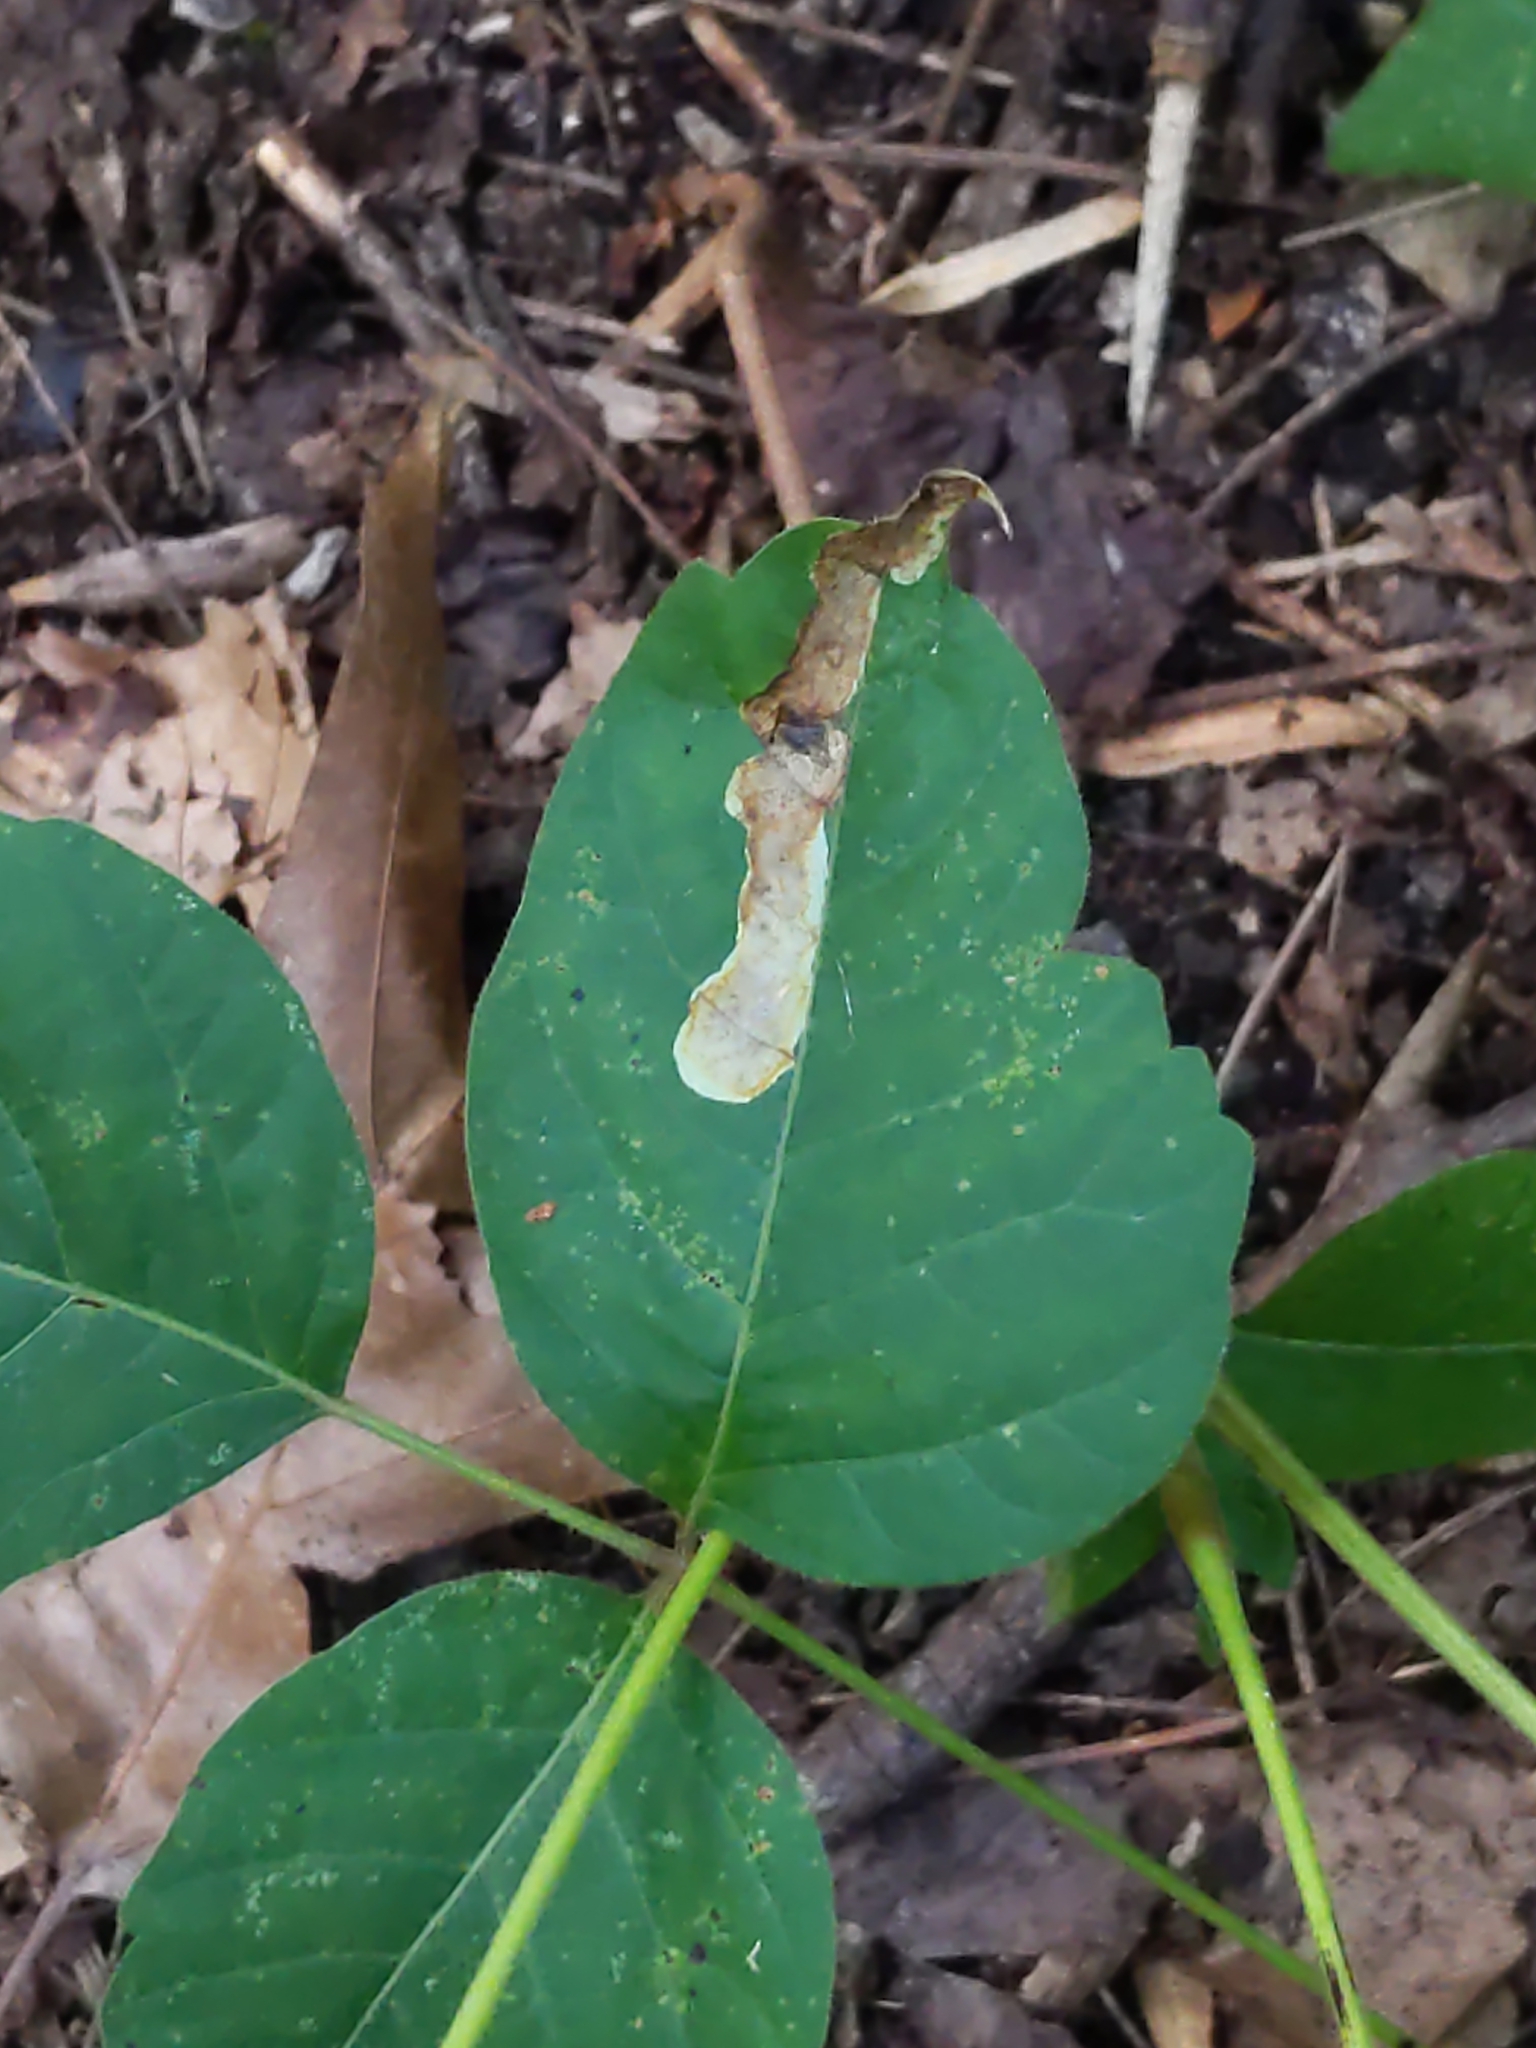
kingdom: Animalia
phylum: Arthropoda
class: Insecta
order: Lepidoptera
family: Gracillariidae
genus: Cameraria
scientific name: Cameraria guttifinitella
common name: Poison ivy leaf-miner moth
